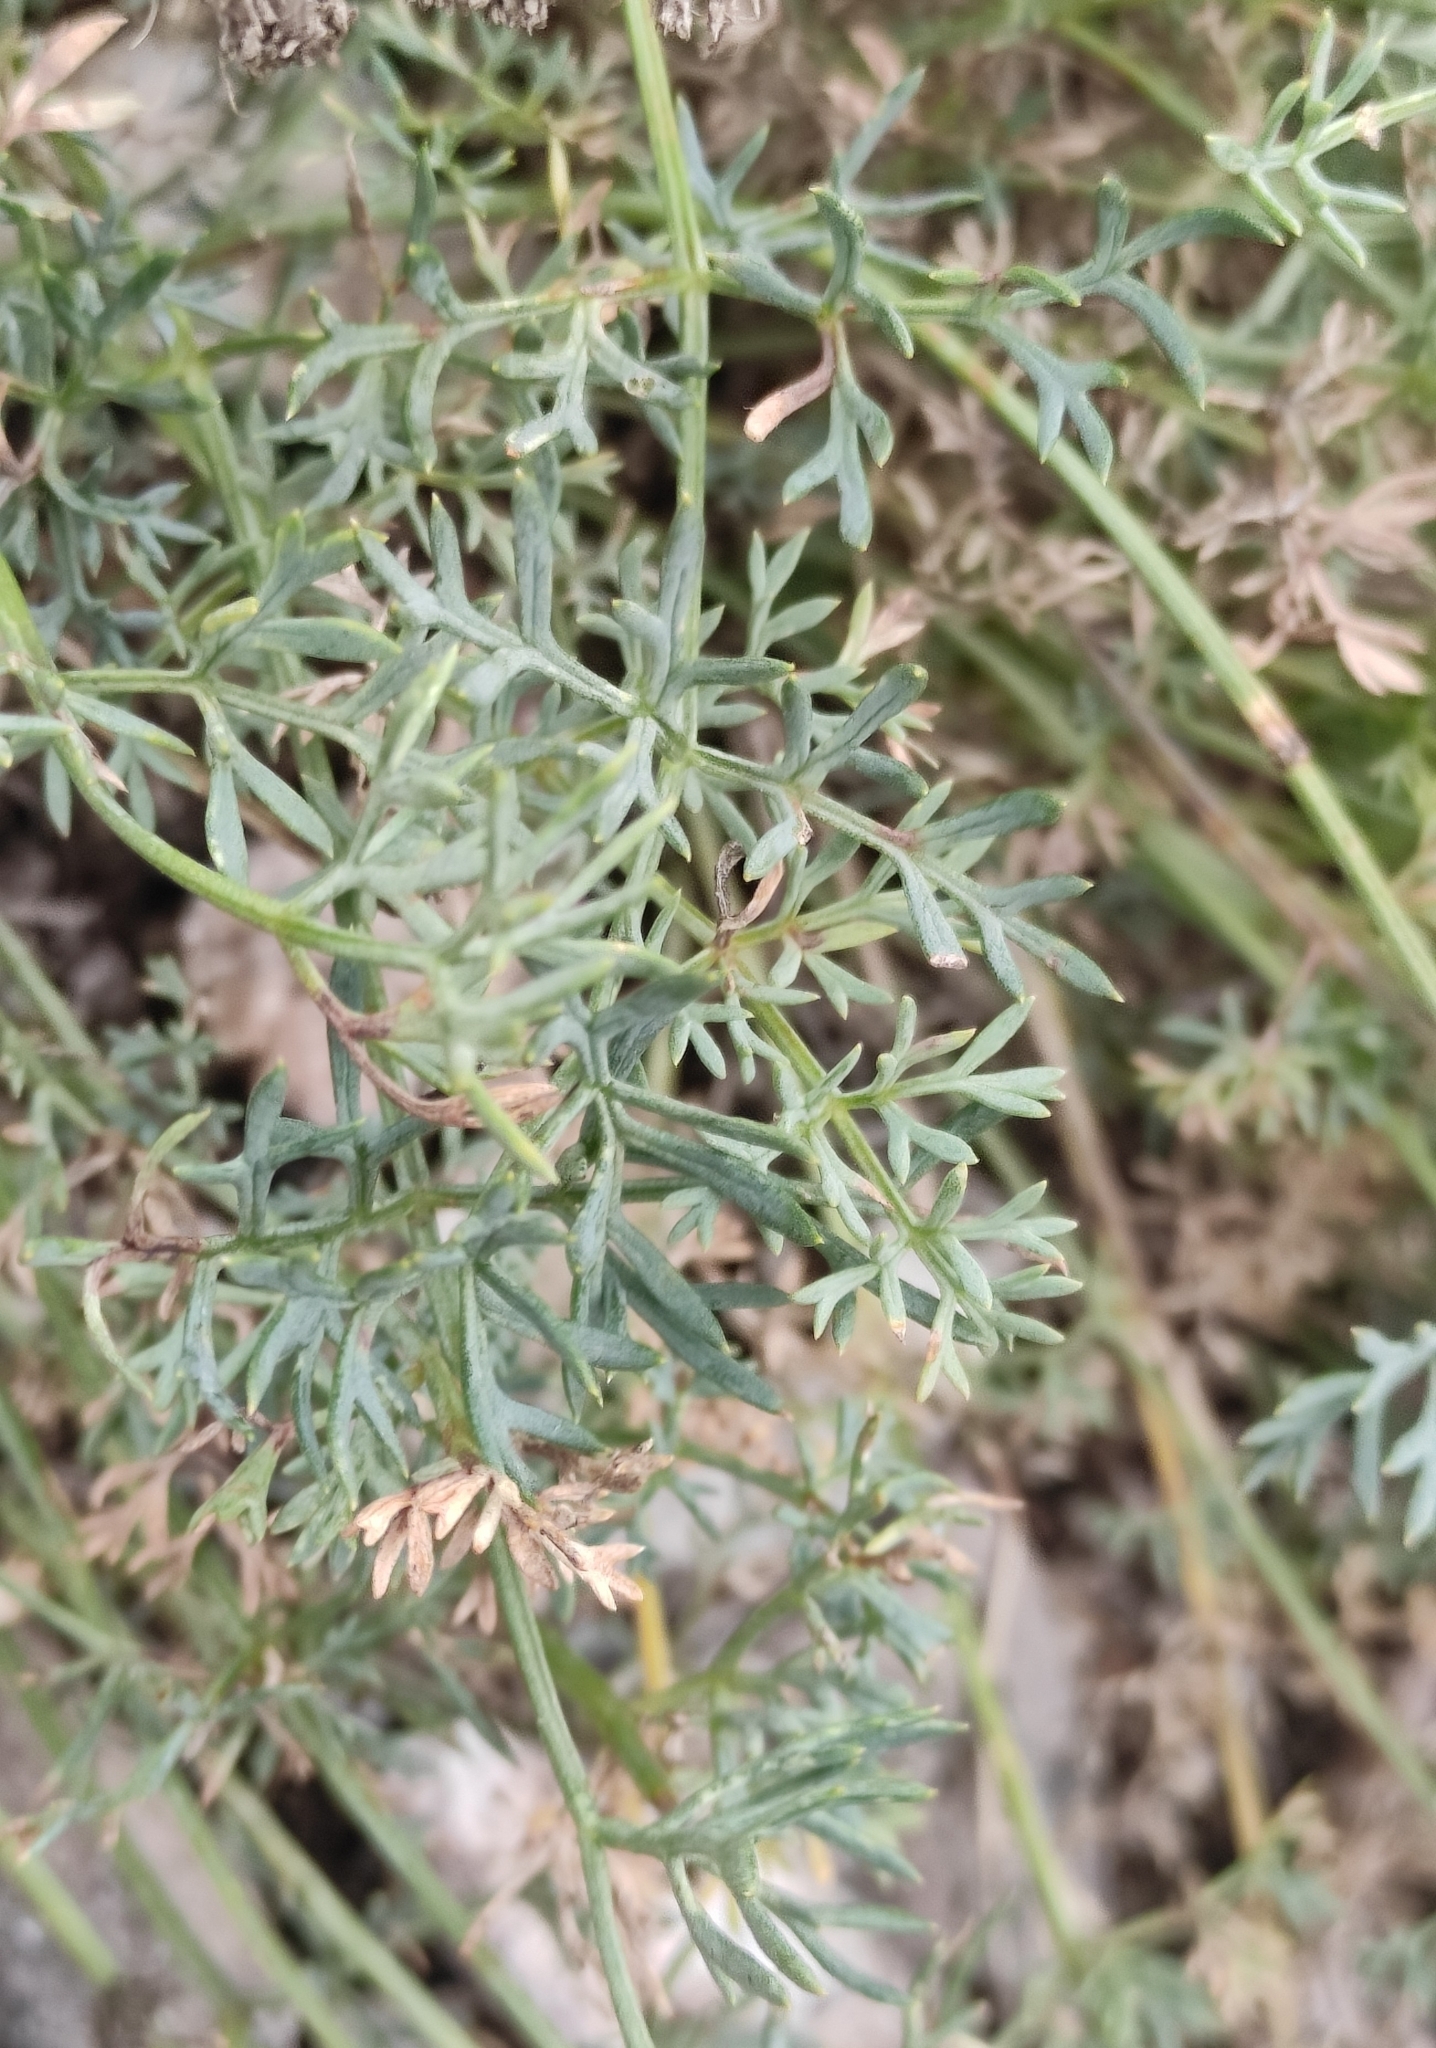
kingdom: Plantae
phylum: Tracheophyta
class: Magnoliopsida
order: Apiales
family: Apiaceae
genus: Phlojodicarpus
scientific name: Phlojodicarpus sibiricus
